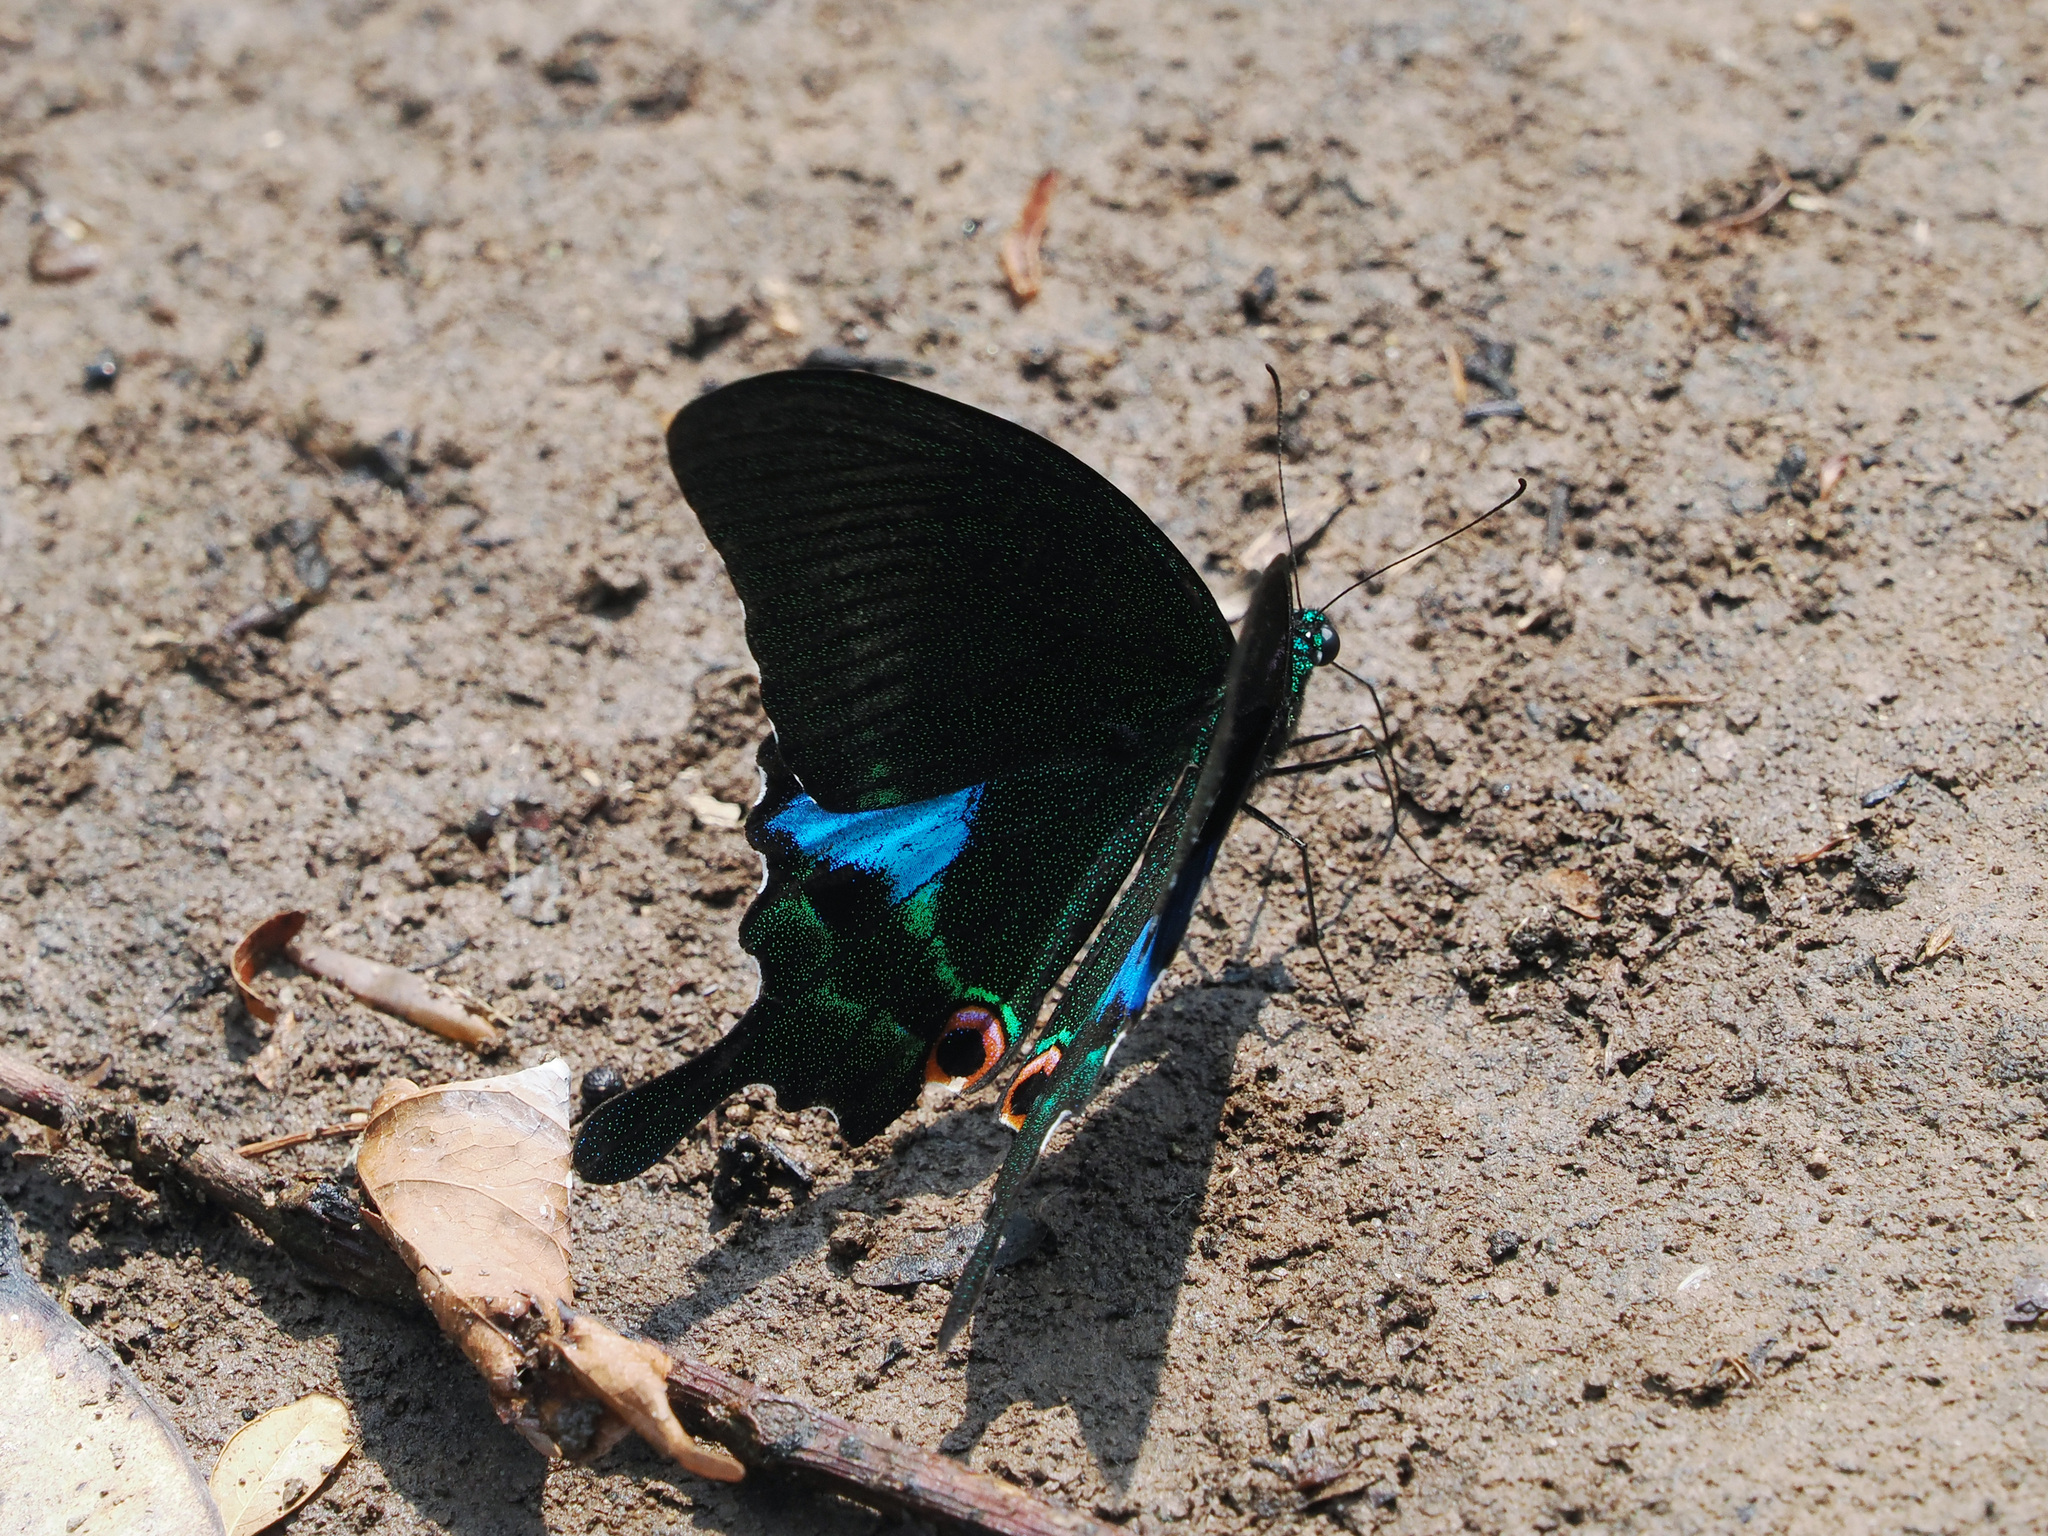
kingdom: Animalia
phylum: Arthropoda
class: Insecta
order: Lepidoptera
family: Papilionidae
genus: Papilio
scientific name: Papilio paris
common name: Paris peacock
